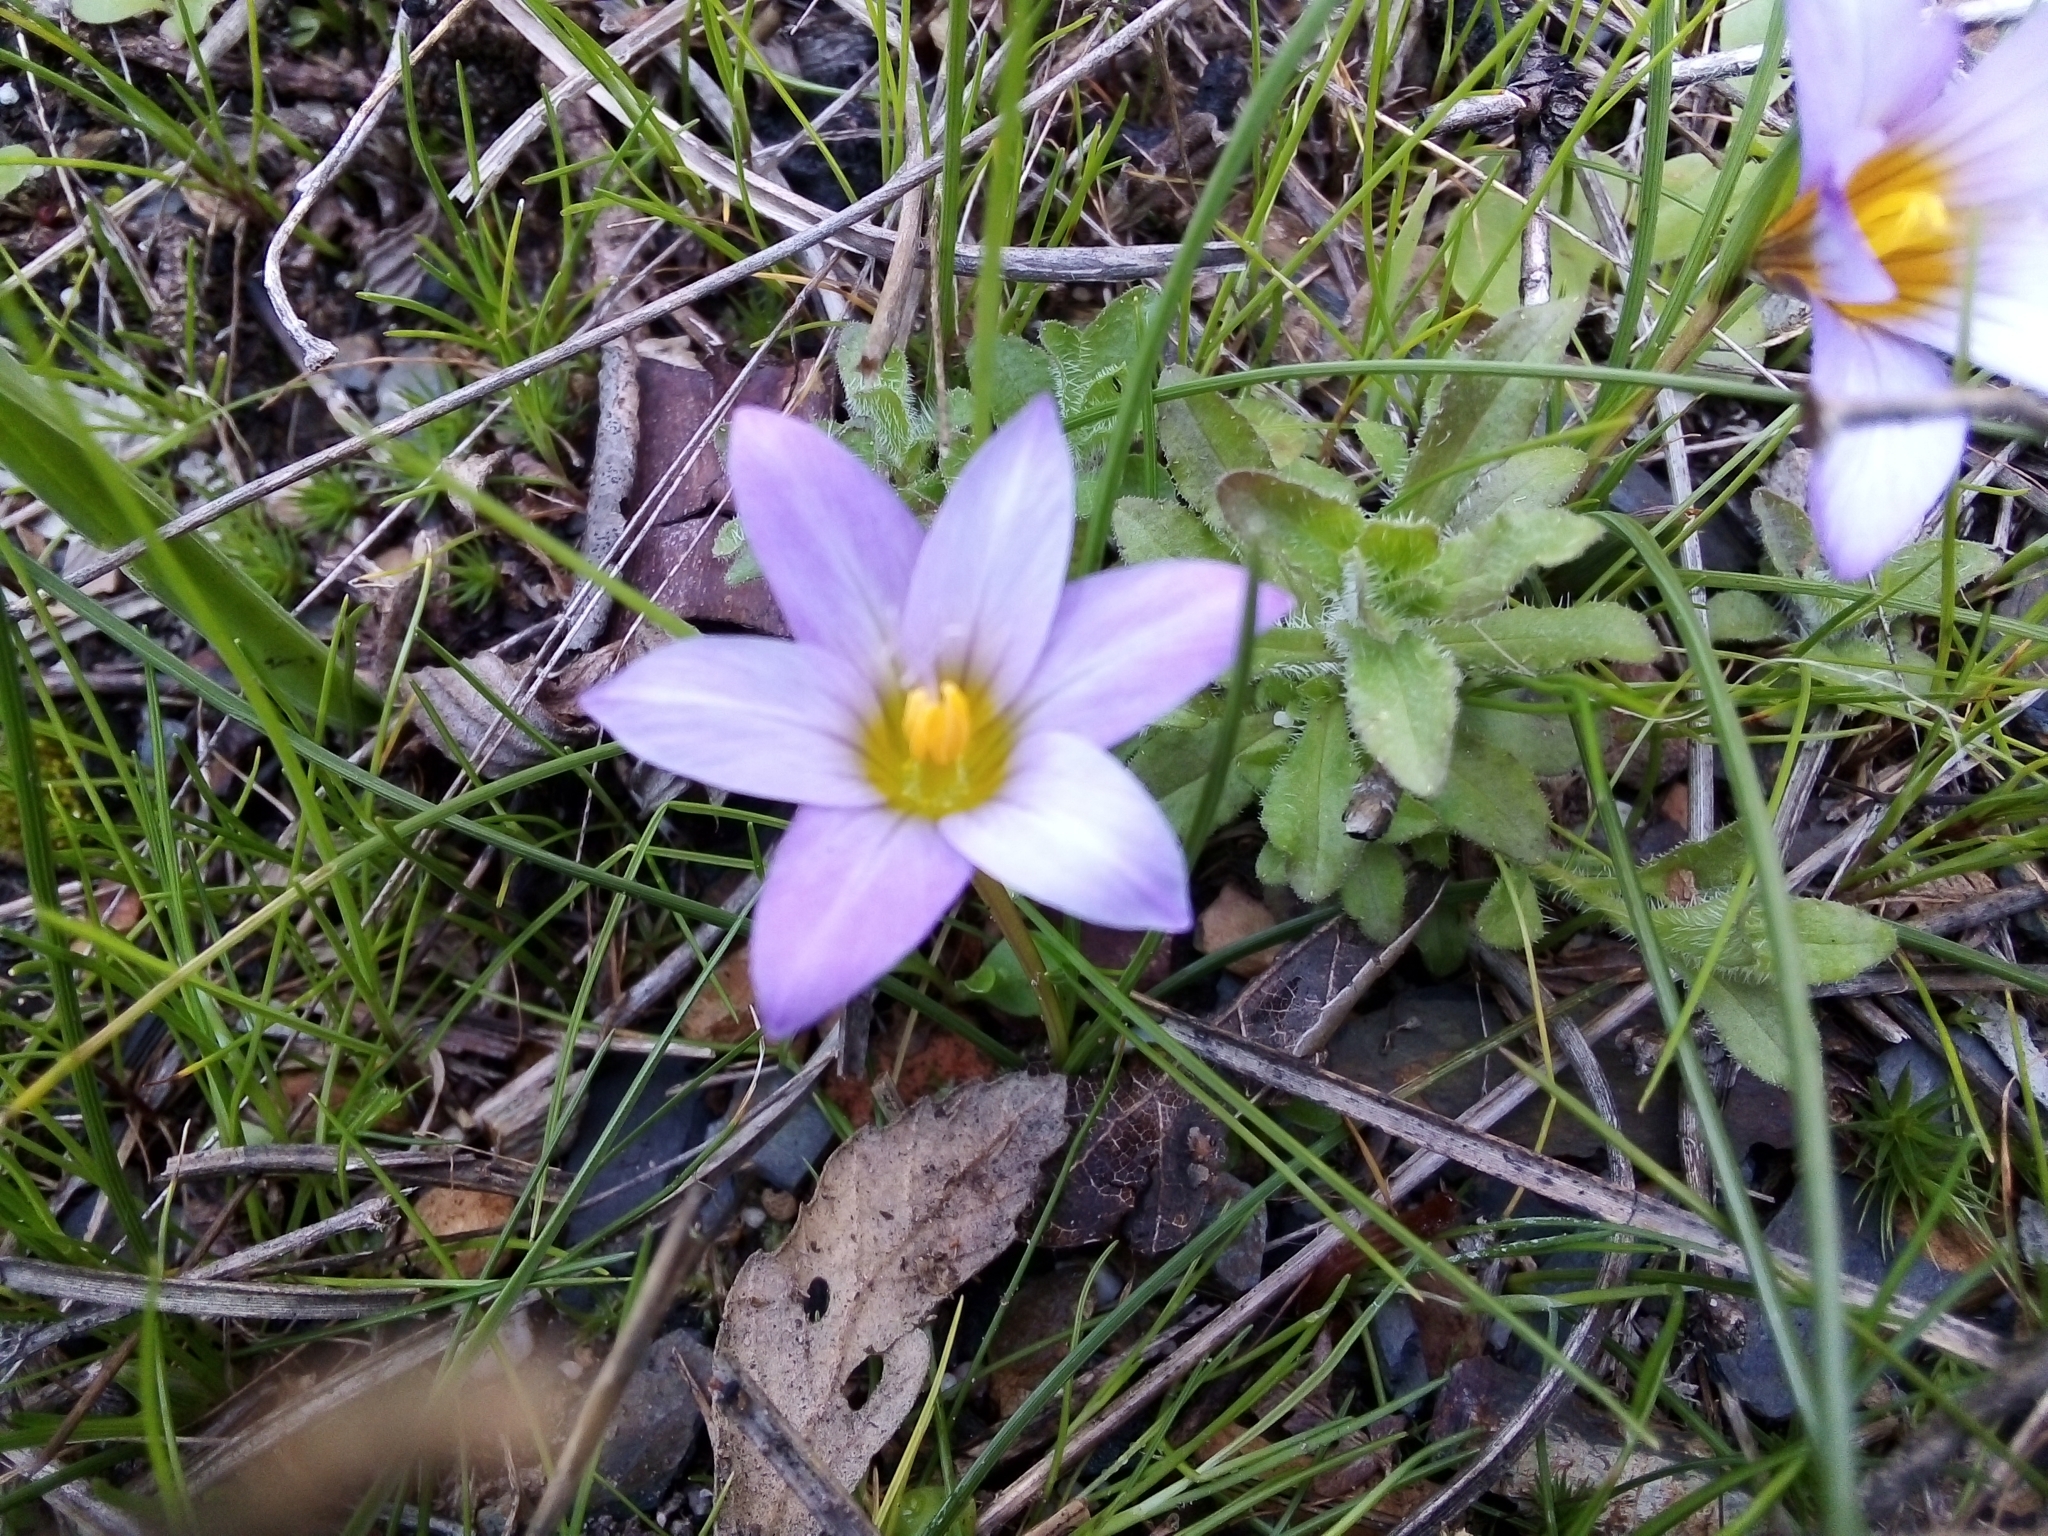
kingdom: Plantae
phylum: Tracheophyta
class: Liliopsida
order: Asparagales
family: Iridaceae
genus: Romulea
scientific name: Romulea bulbocodium
